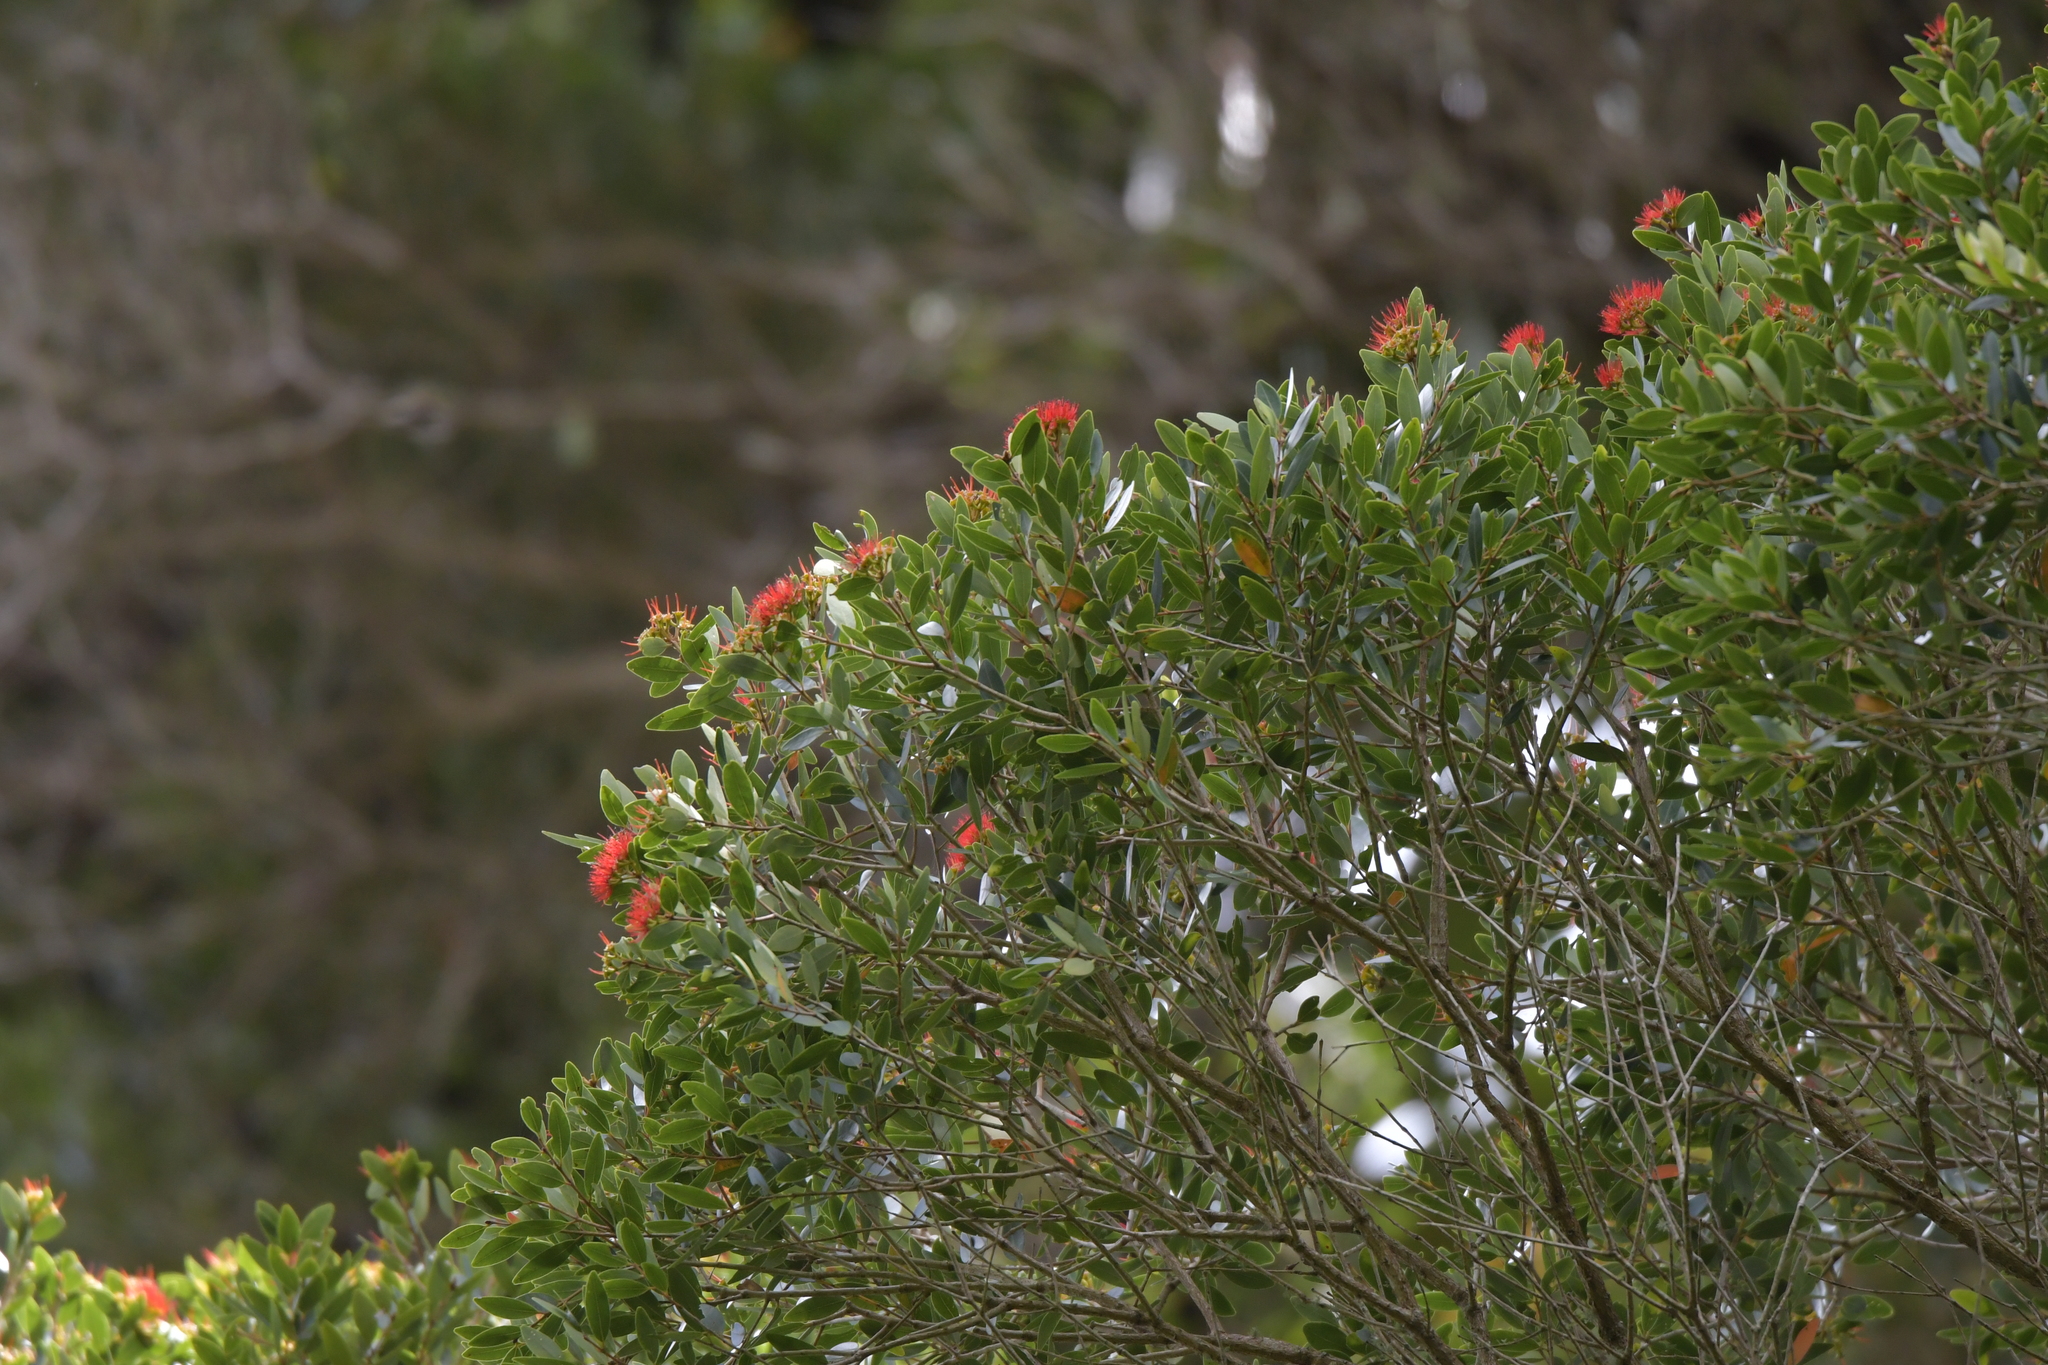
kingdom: Plantae
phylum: Tracheophyta
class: Magnoliopsida
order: Myrtales
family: Myrtaceae
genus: Metrosideros
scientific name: Metrosideros robusta
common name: Northern rata
